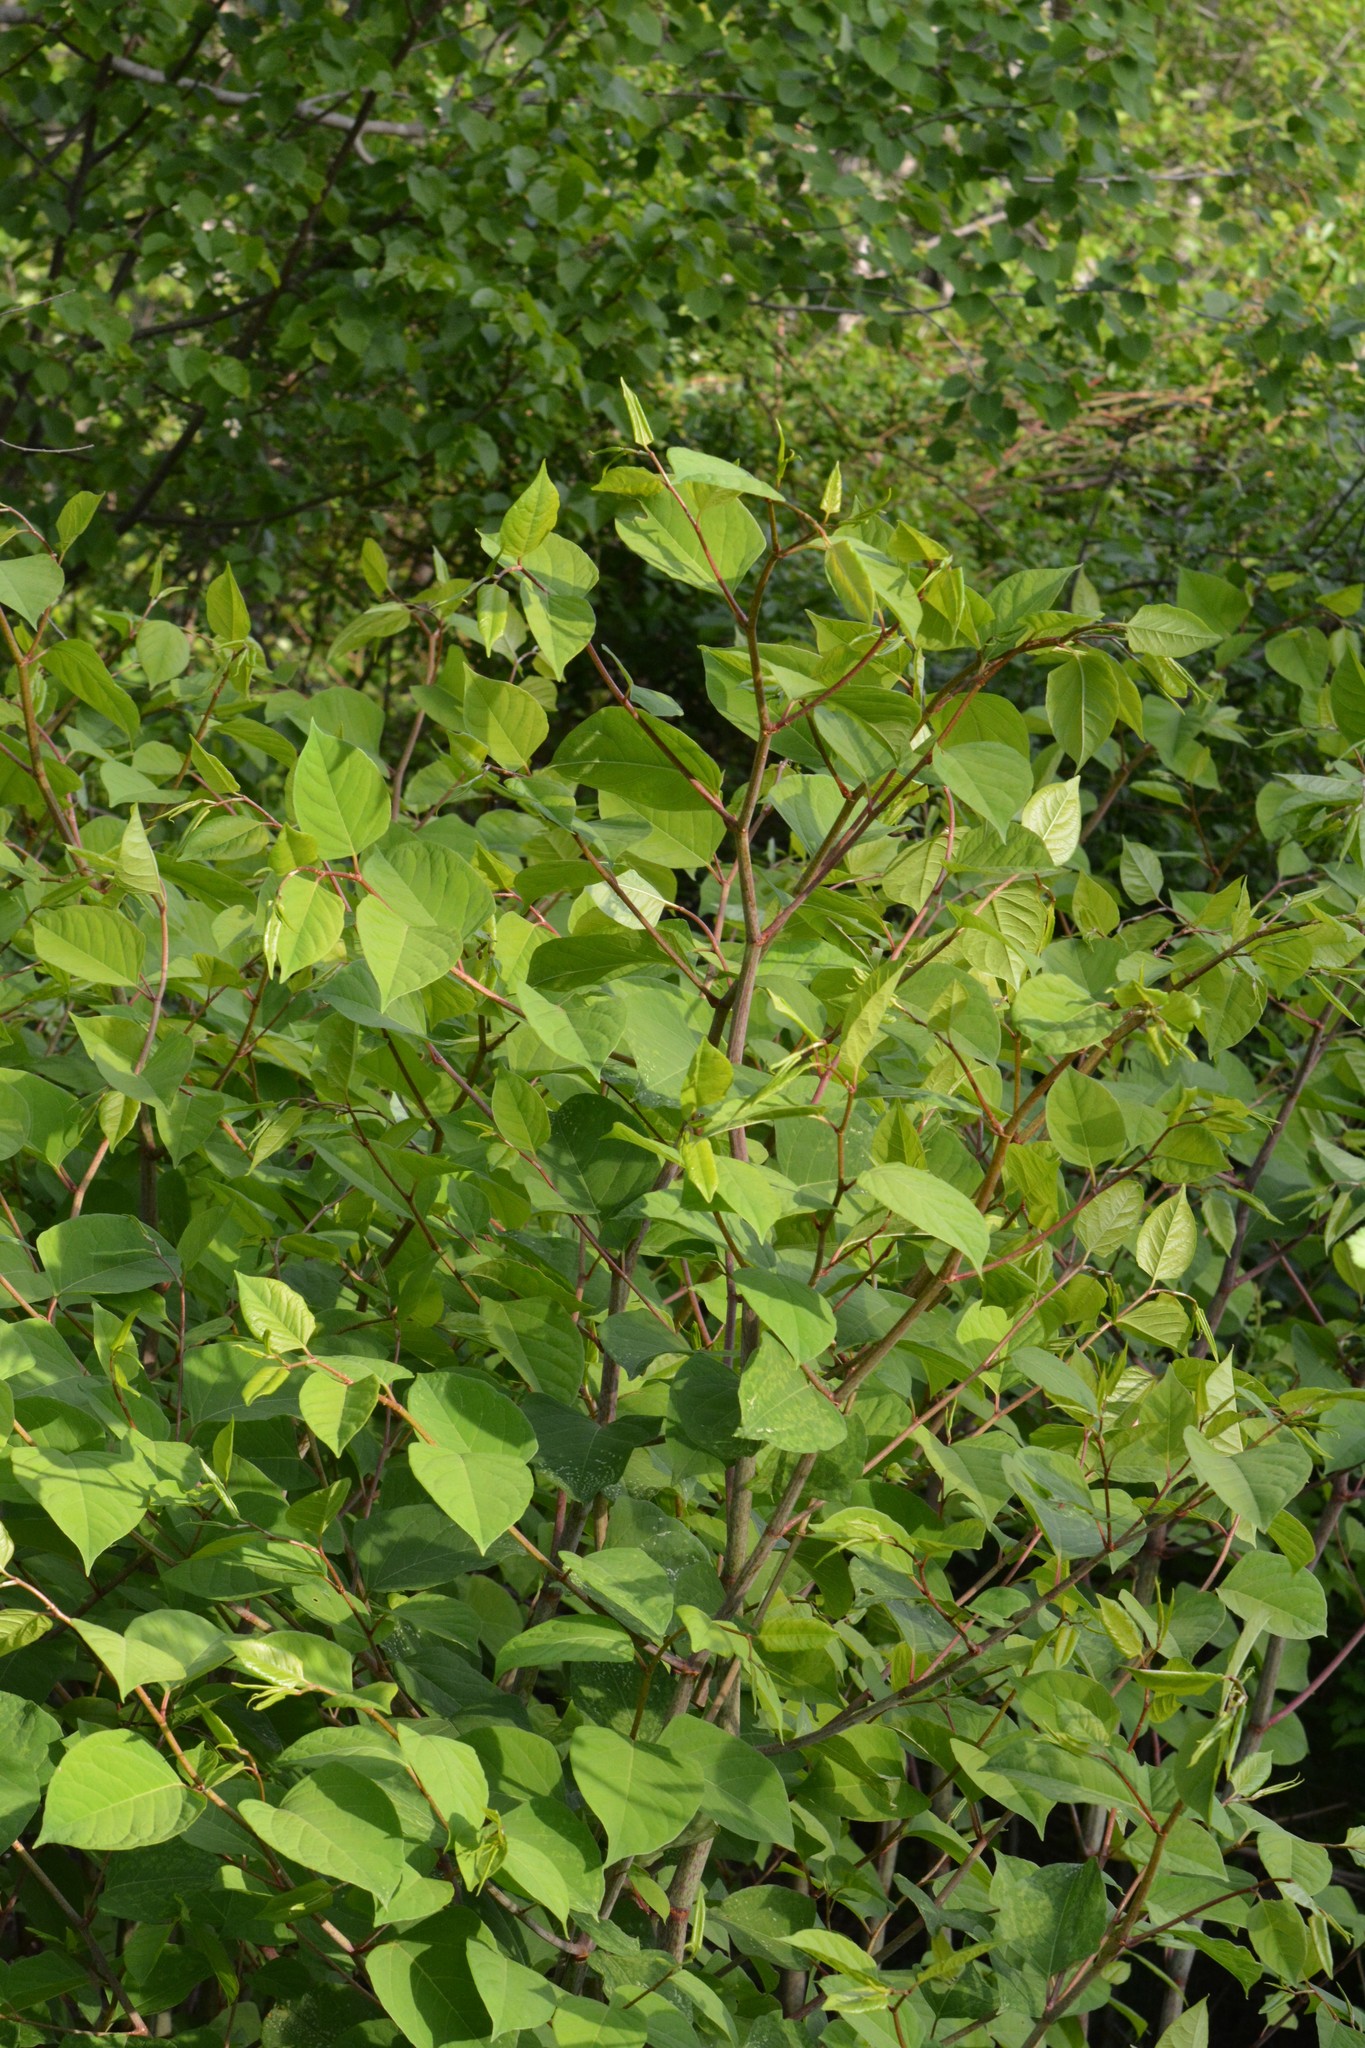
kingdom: Plantae
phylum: Tracheophyta
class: Magnoliopsida
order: Caryophyllales
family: Polygonaceae
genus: Reynoutria
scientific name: Reynoutria japonica
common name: Japanese knotweed
